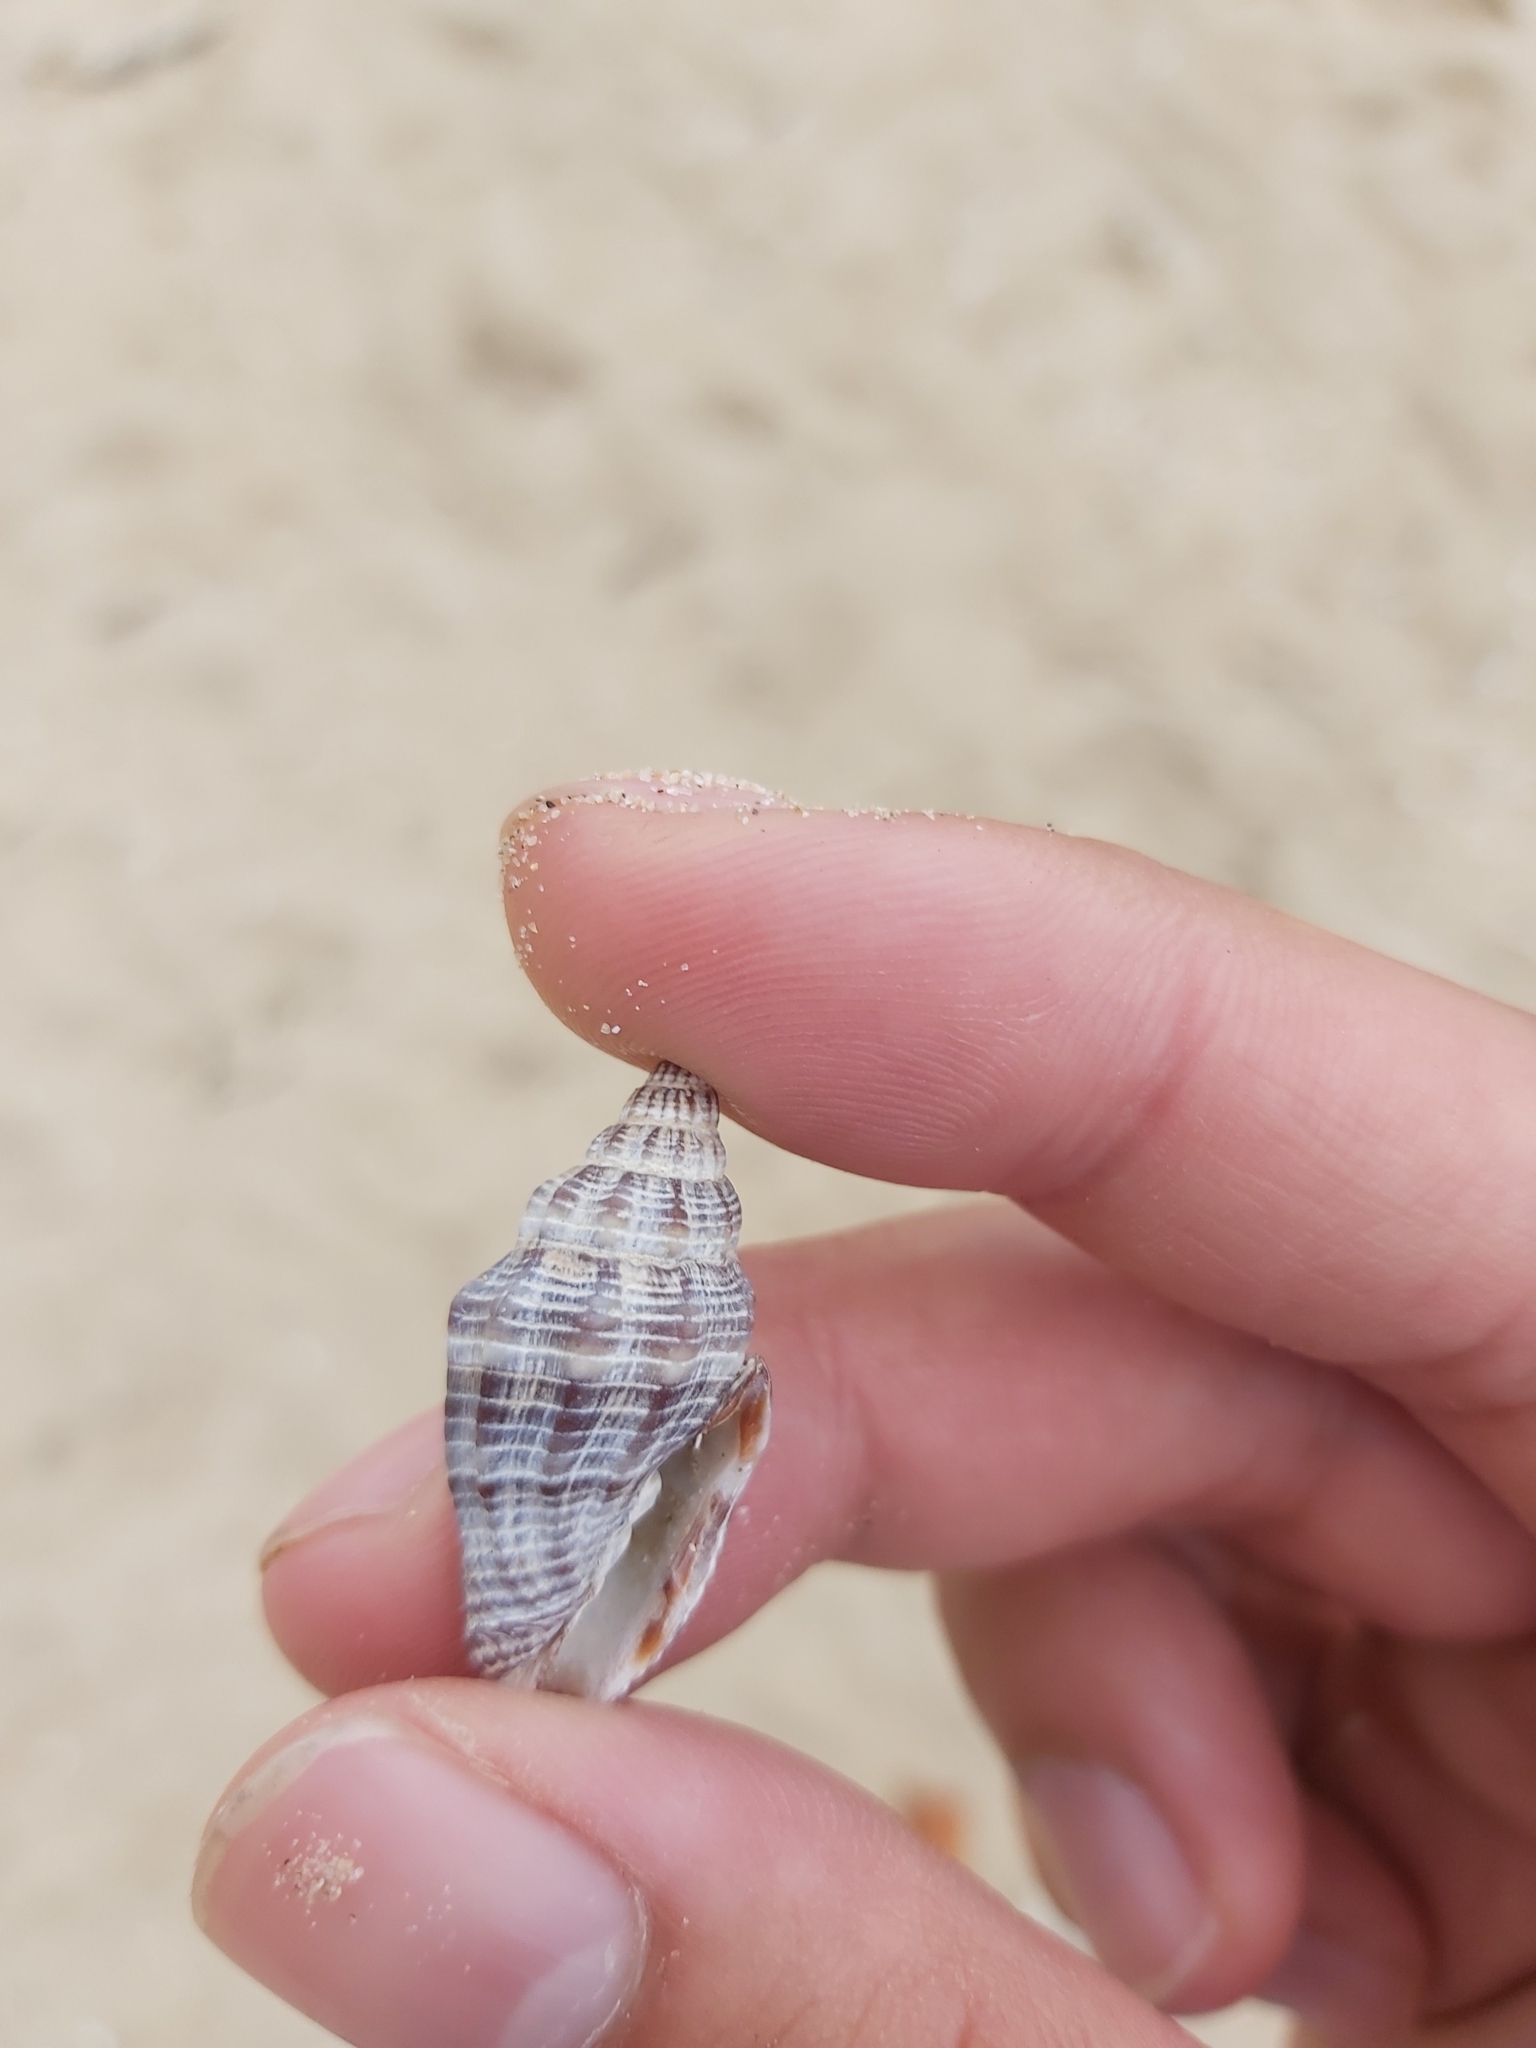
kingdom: Animalia
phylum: Mollusca
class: Gastropoda
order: Neogastropoda
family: Costellariidae
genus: Vexillum
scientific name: Vexillum rugosum
